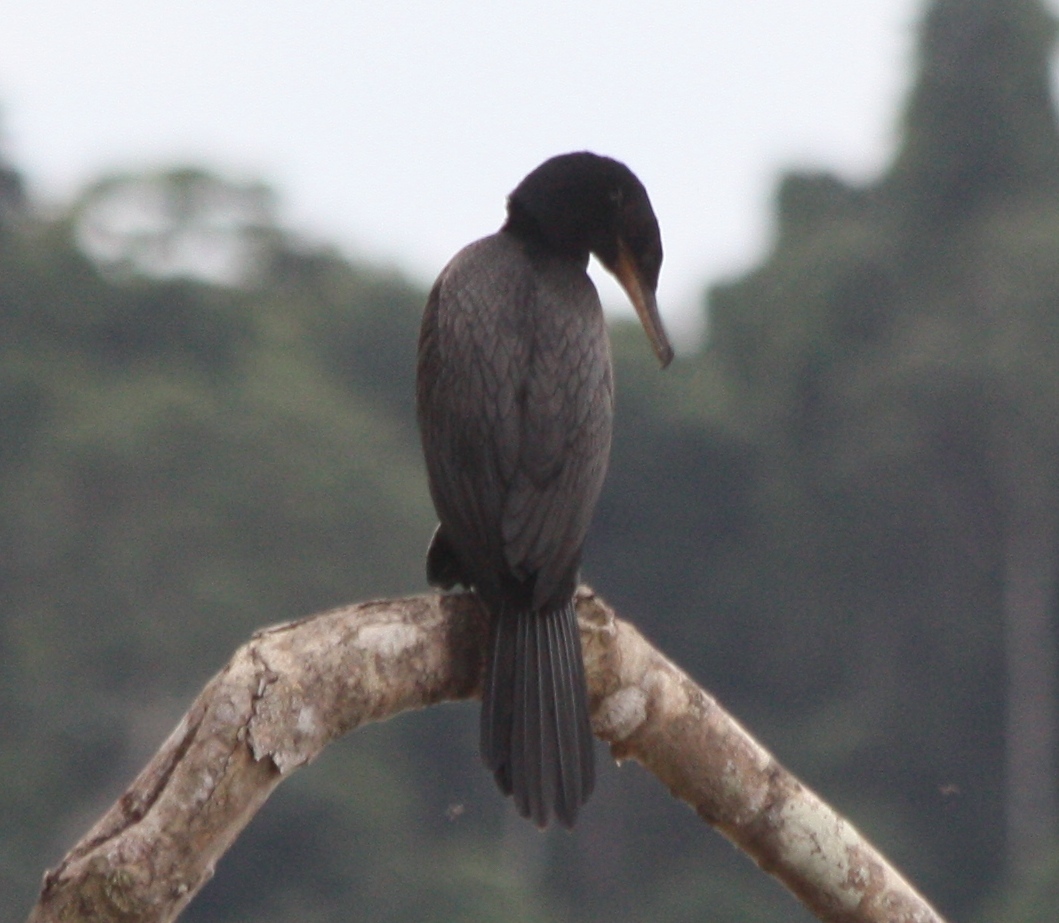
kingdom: Animalia
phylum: Chordata
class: Aves
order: Suliformes
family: Phalacrocoracidae
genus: Phalacrocorax
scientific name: Phalacrocorax brasilianus
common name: Neotropic cormorant
